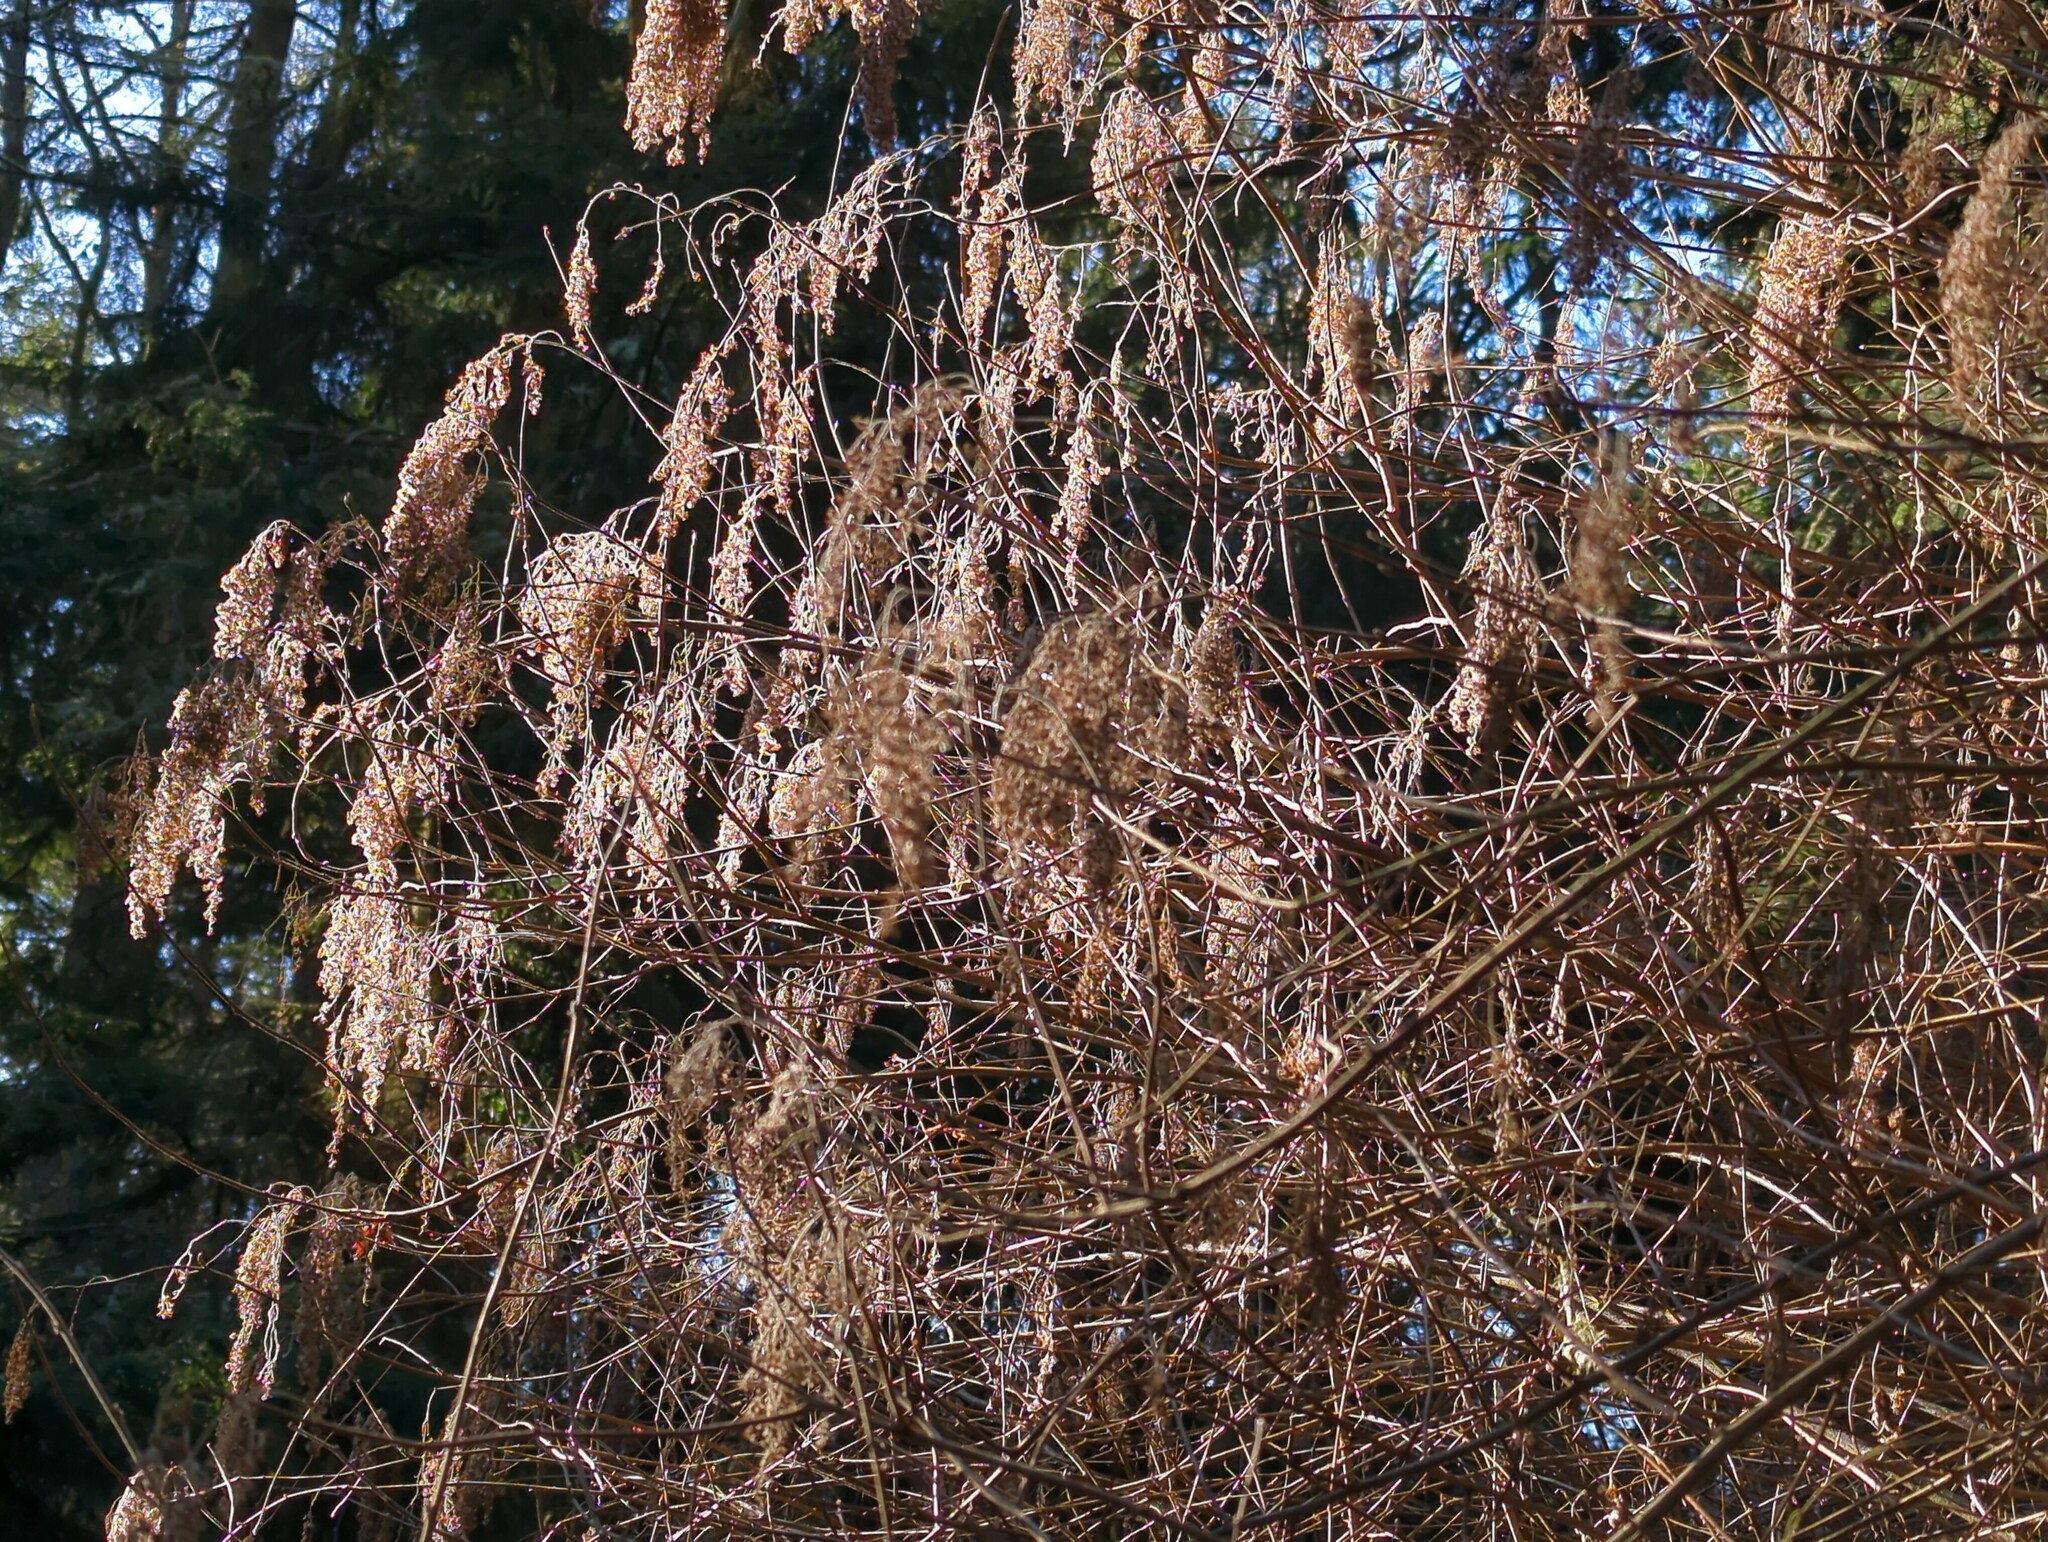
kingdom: Plantae
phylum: Tracheophyta
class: Magnoliopsida
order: Rosales
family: Rosaceae
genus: Holodiscus
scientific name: Holodiscus discolor
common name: Oceanspray
